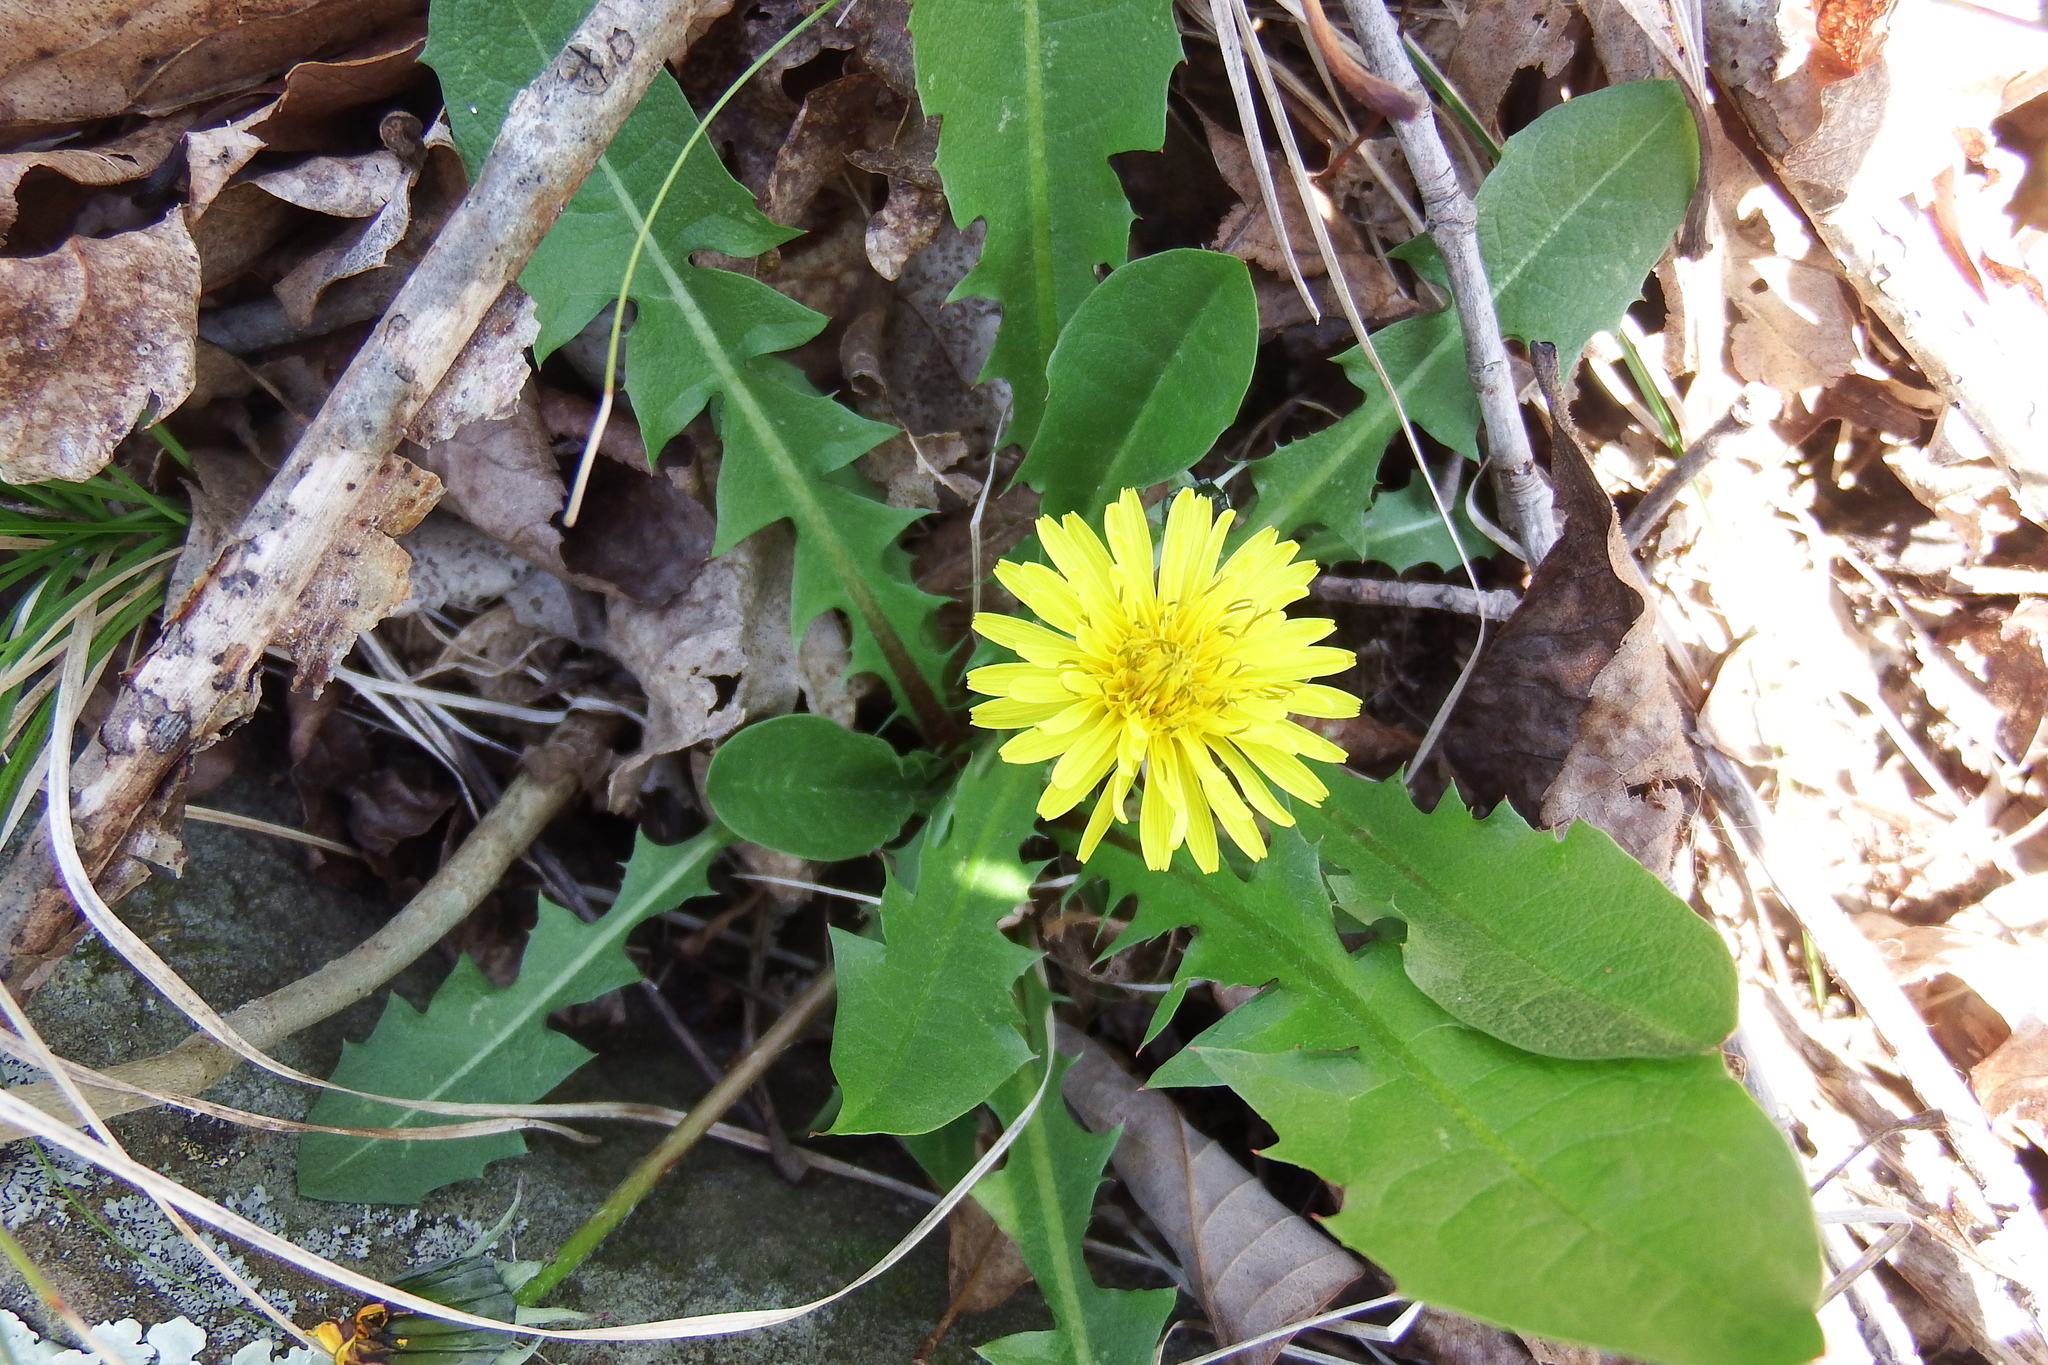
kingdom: Plantae
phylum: Tracheophyta
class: Magnoliopsida
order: Asterales
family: Asteraceae
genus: Taraxacum
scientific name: Taraxacum
